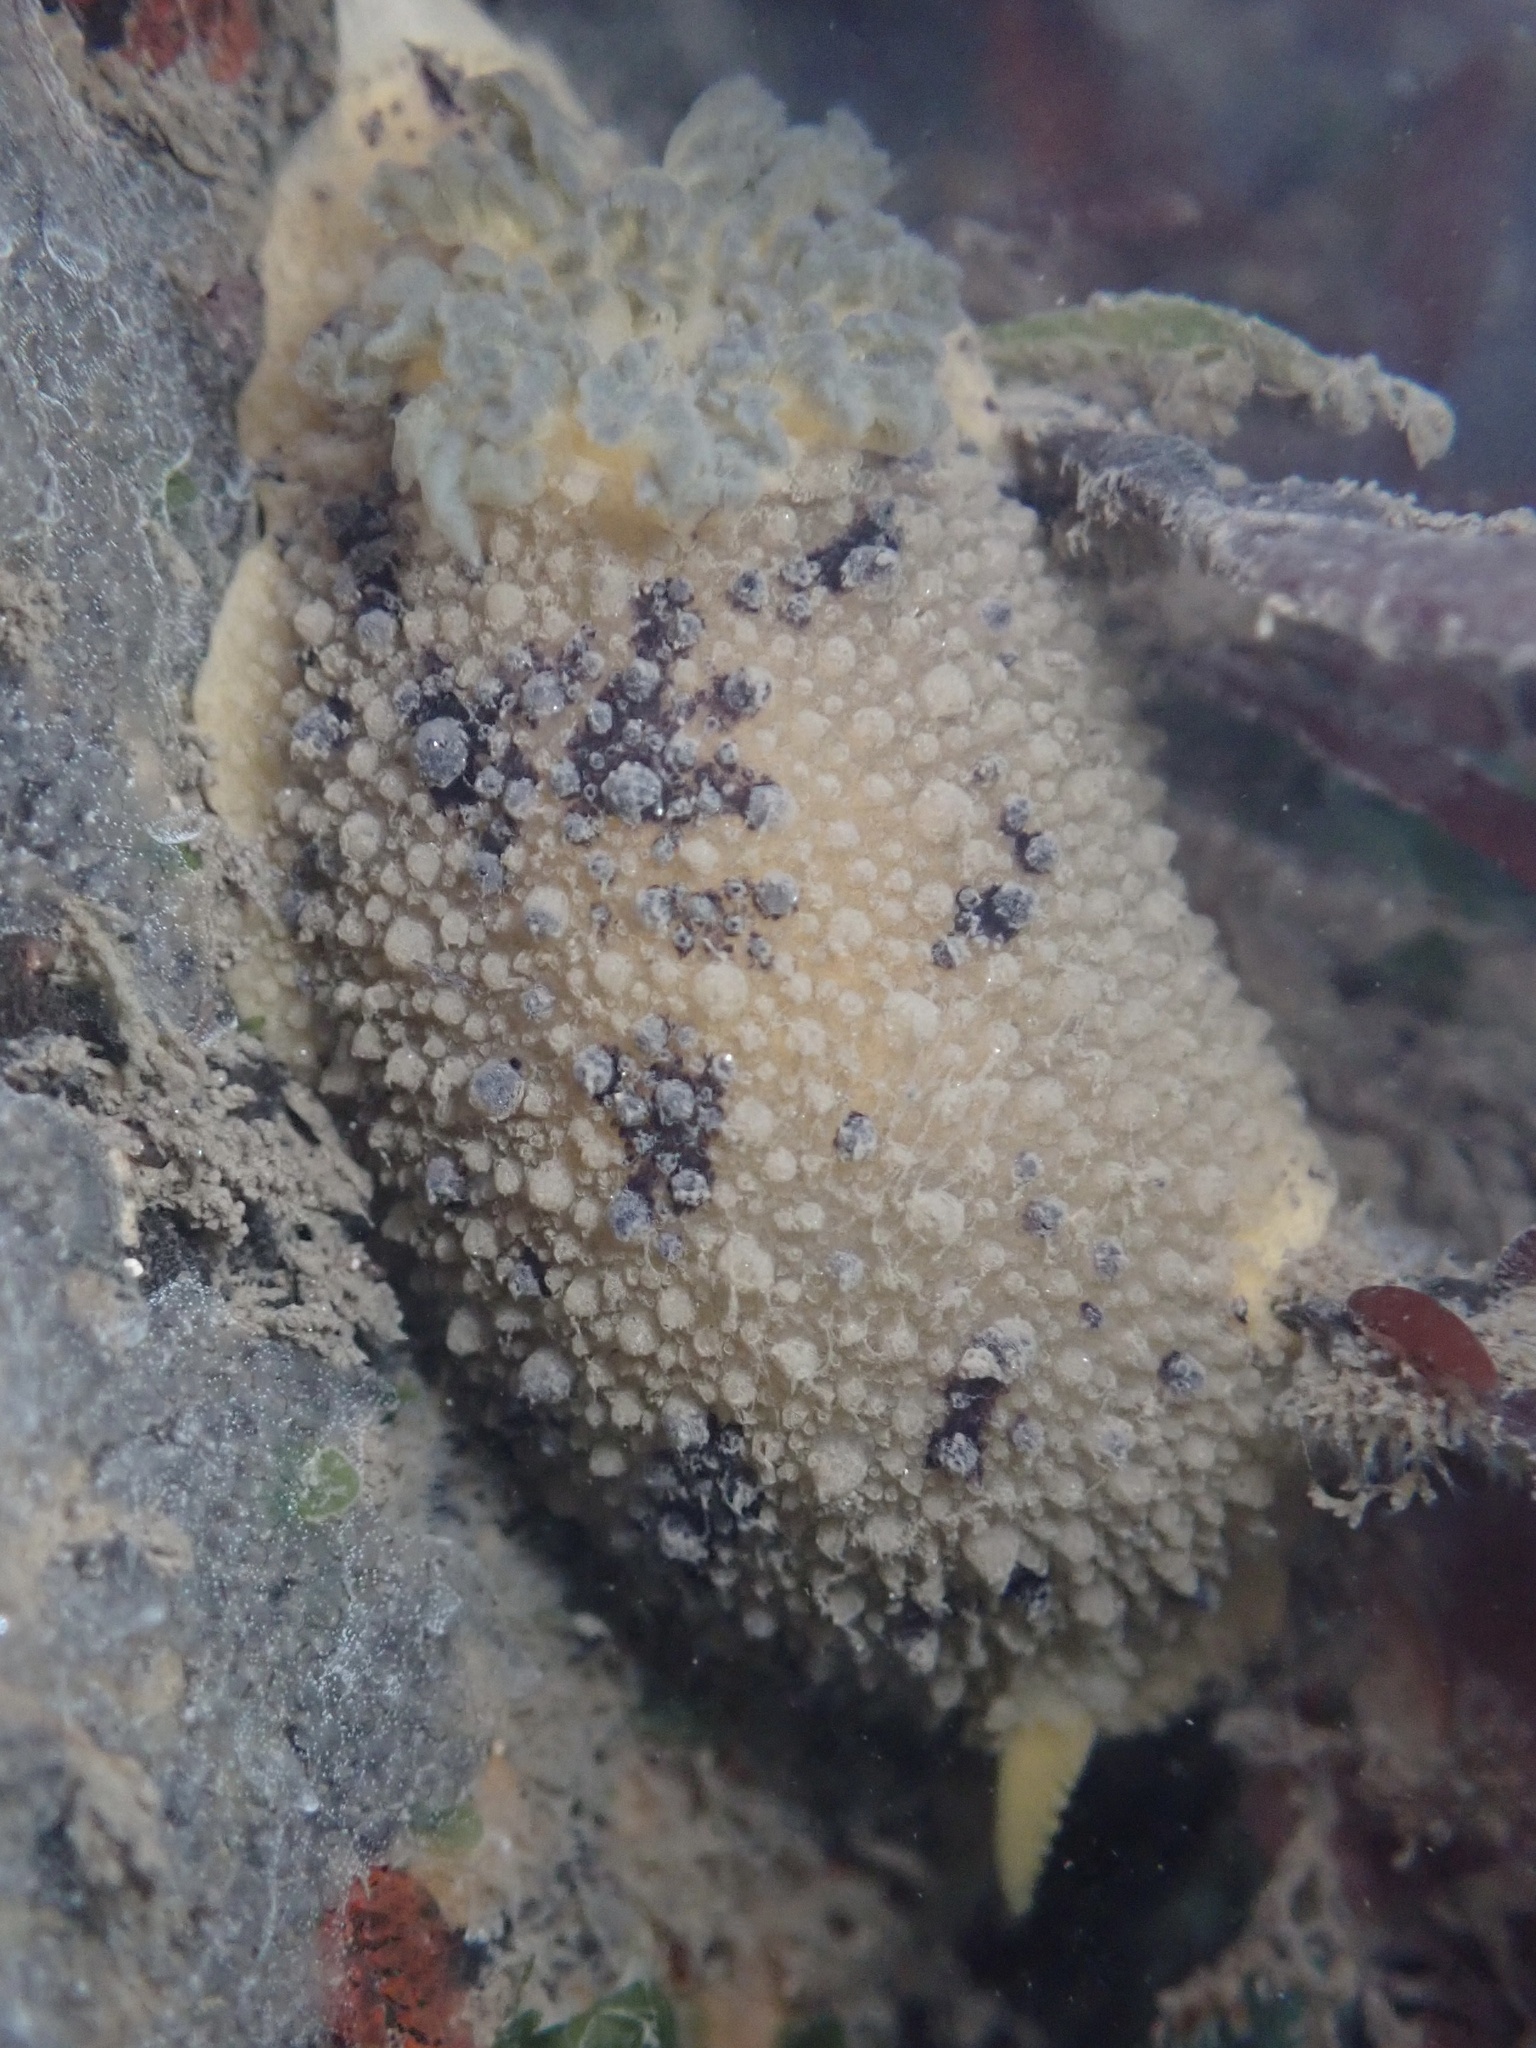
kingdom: Animalia
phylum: Mollusca
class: Gastropoda
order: Nudibranchia
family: Dorididae
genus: Doris
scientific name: Doris montereyensis
